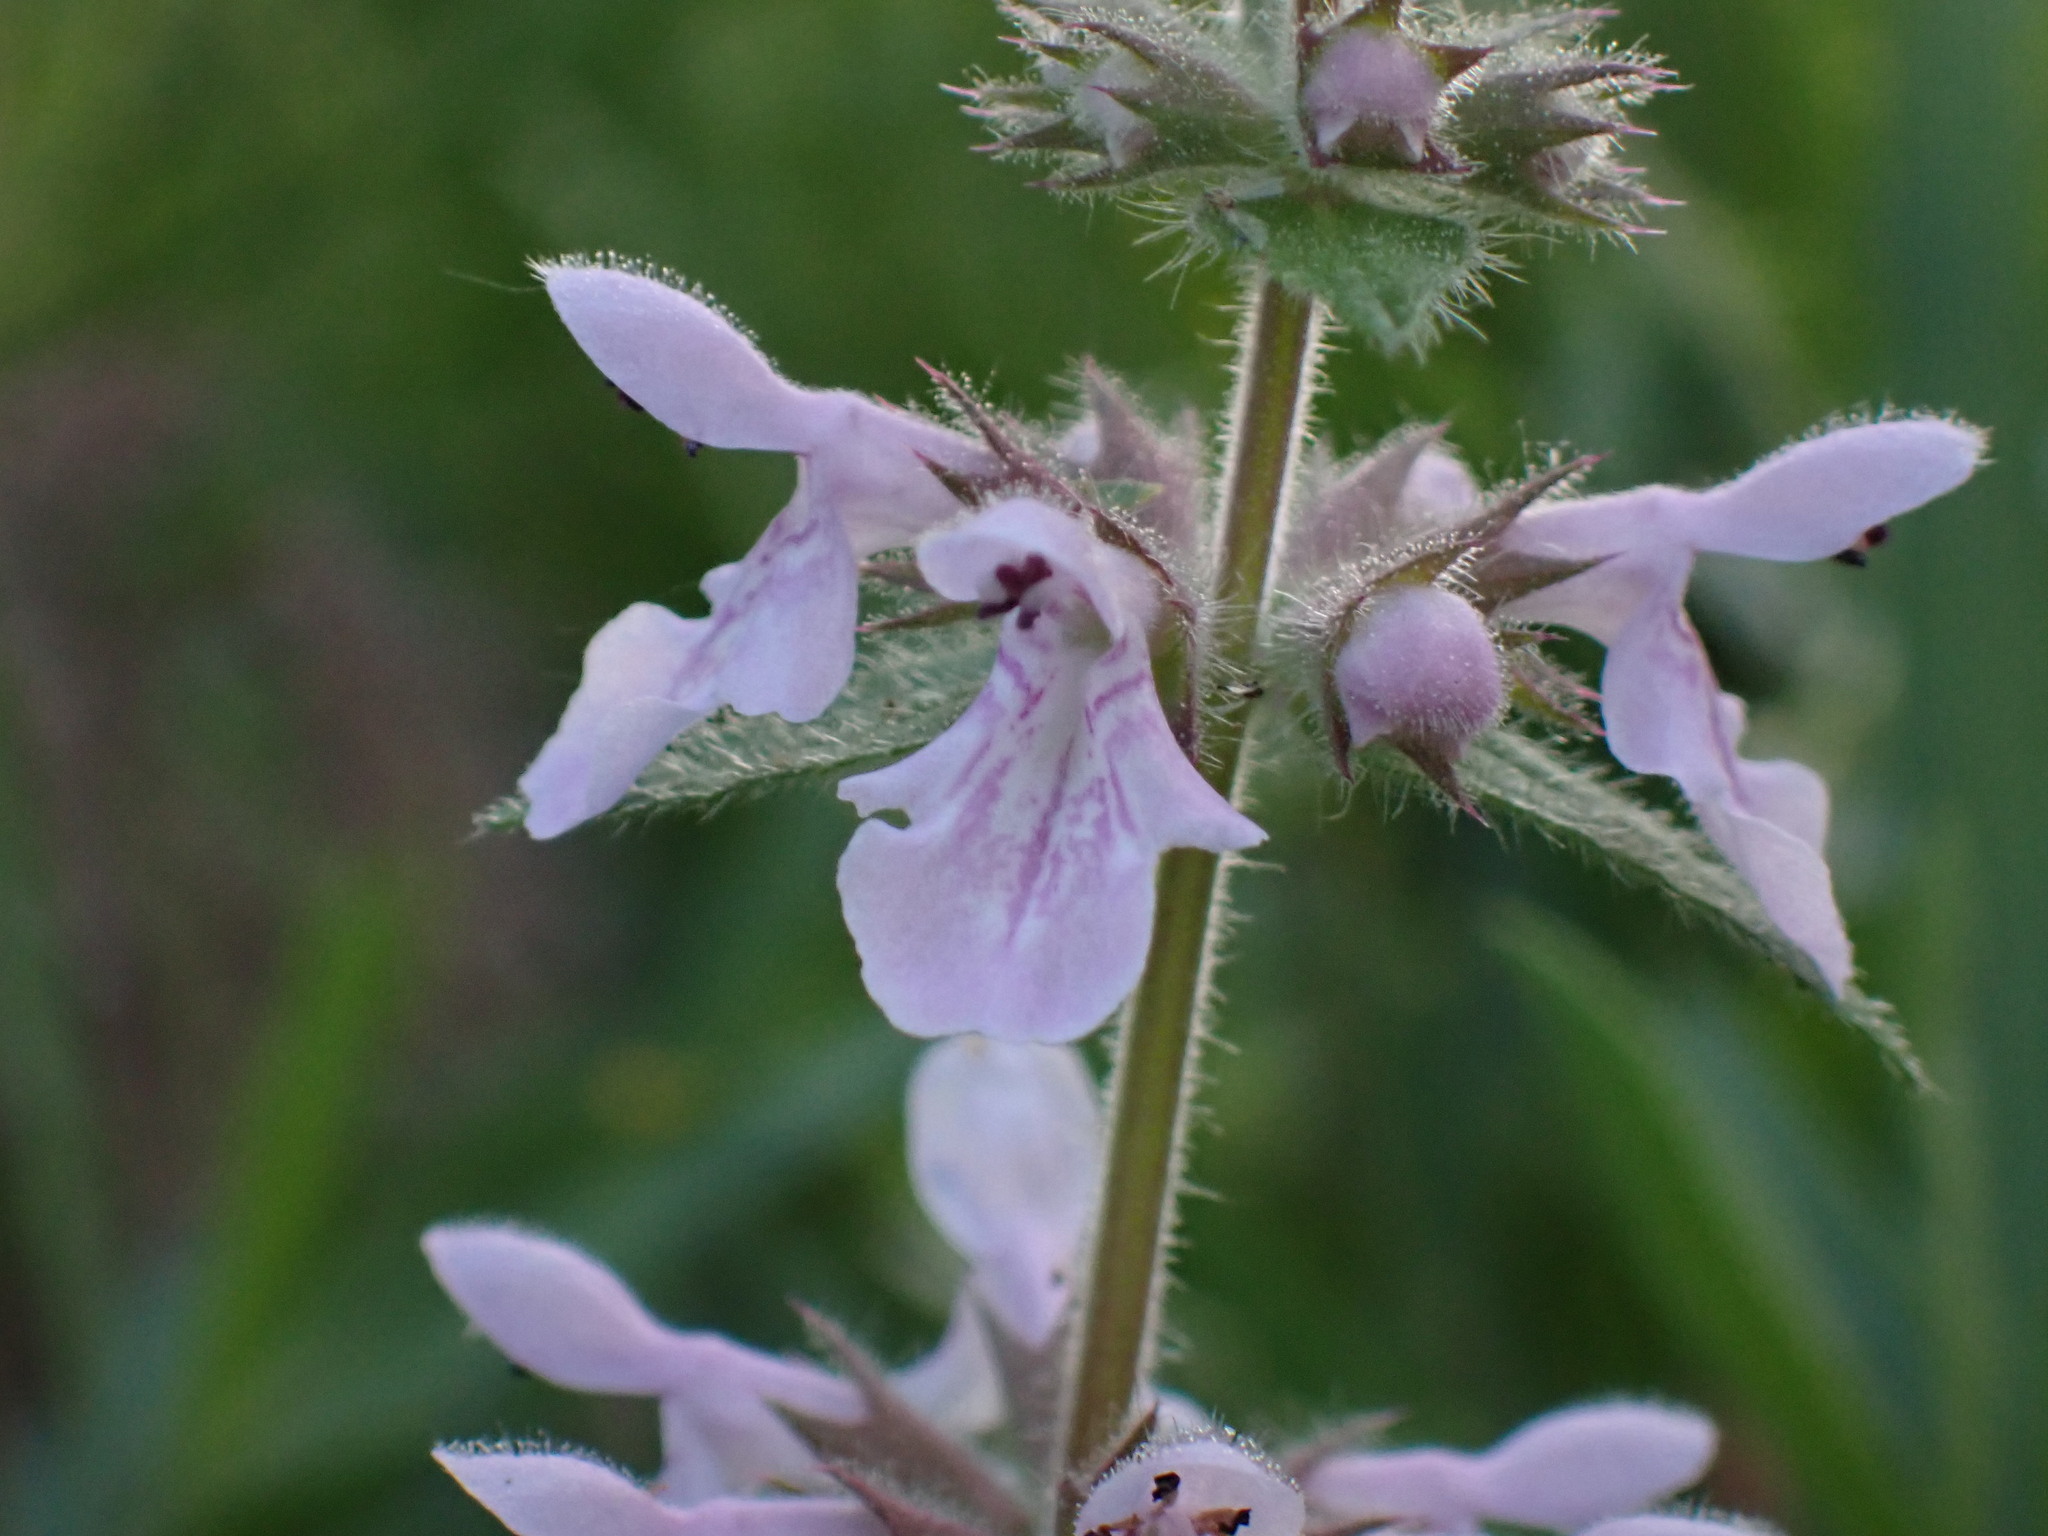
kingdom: Plantae
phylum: Tracheophyta
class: Magnoliopsida
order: Lamiales
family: Lamiaceae
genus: Stachys
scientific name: Stachys pilosa
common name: Hairy hedge-nettle
